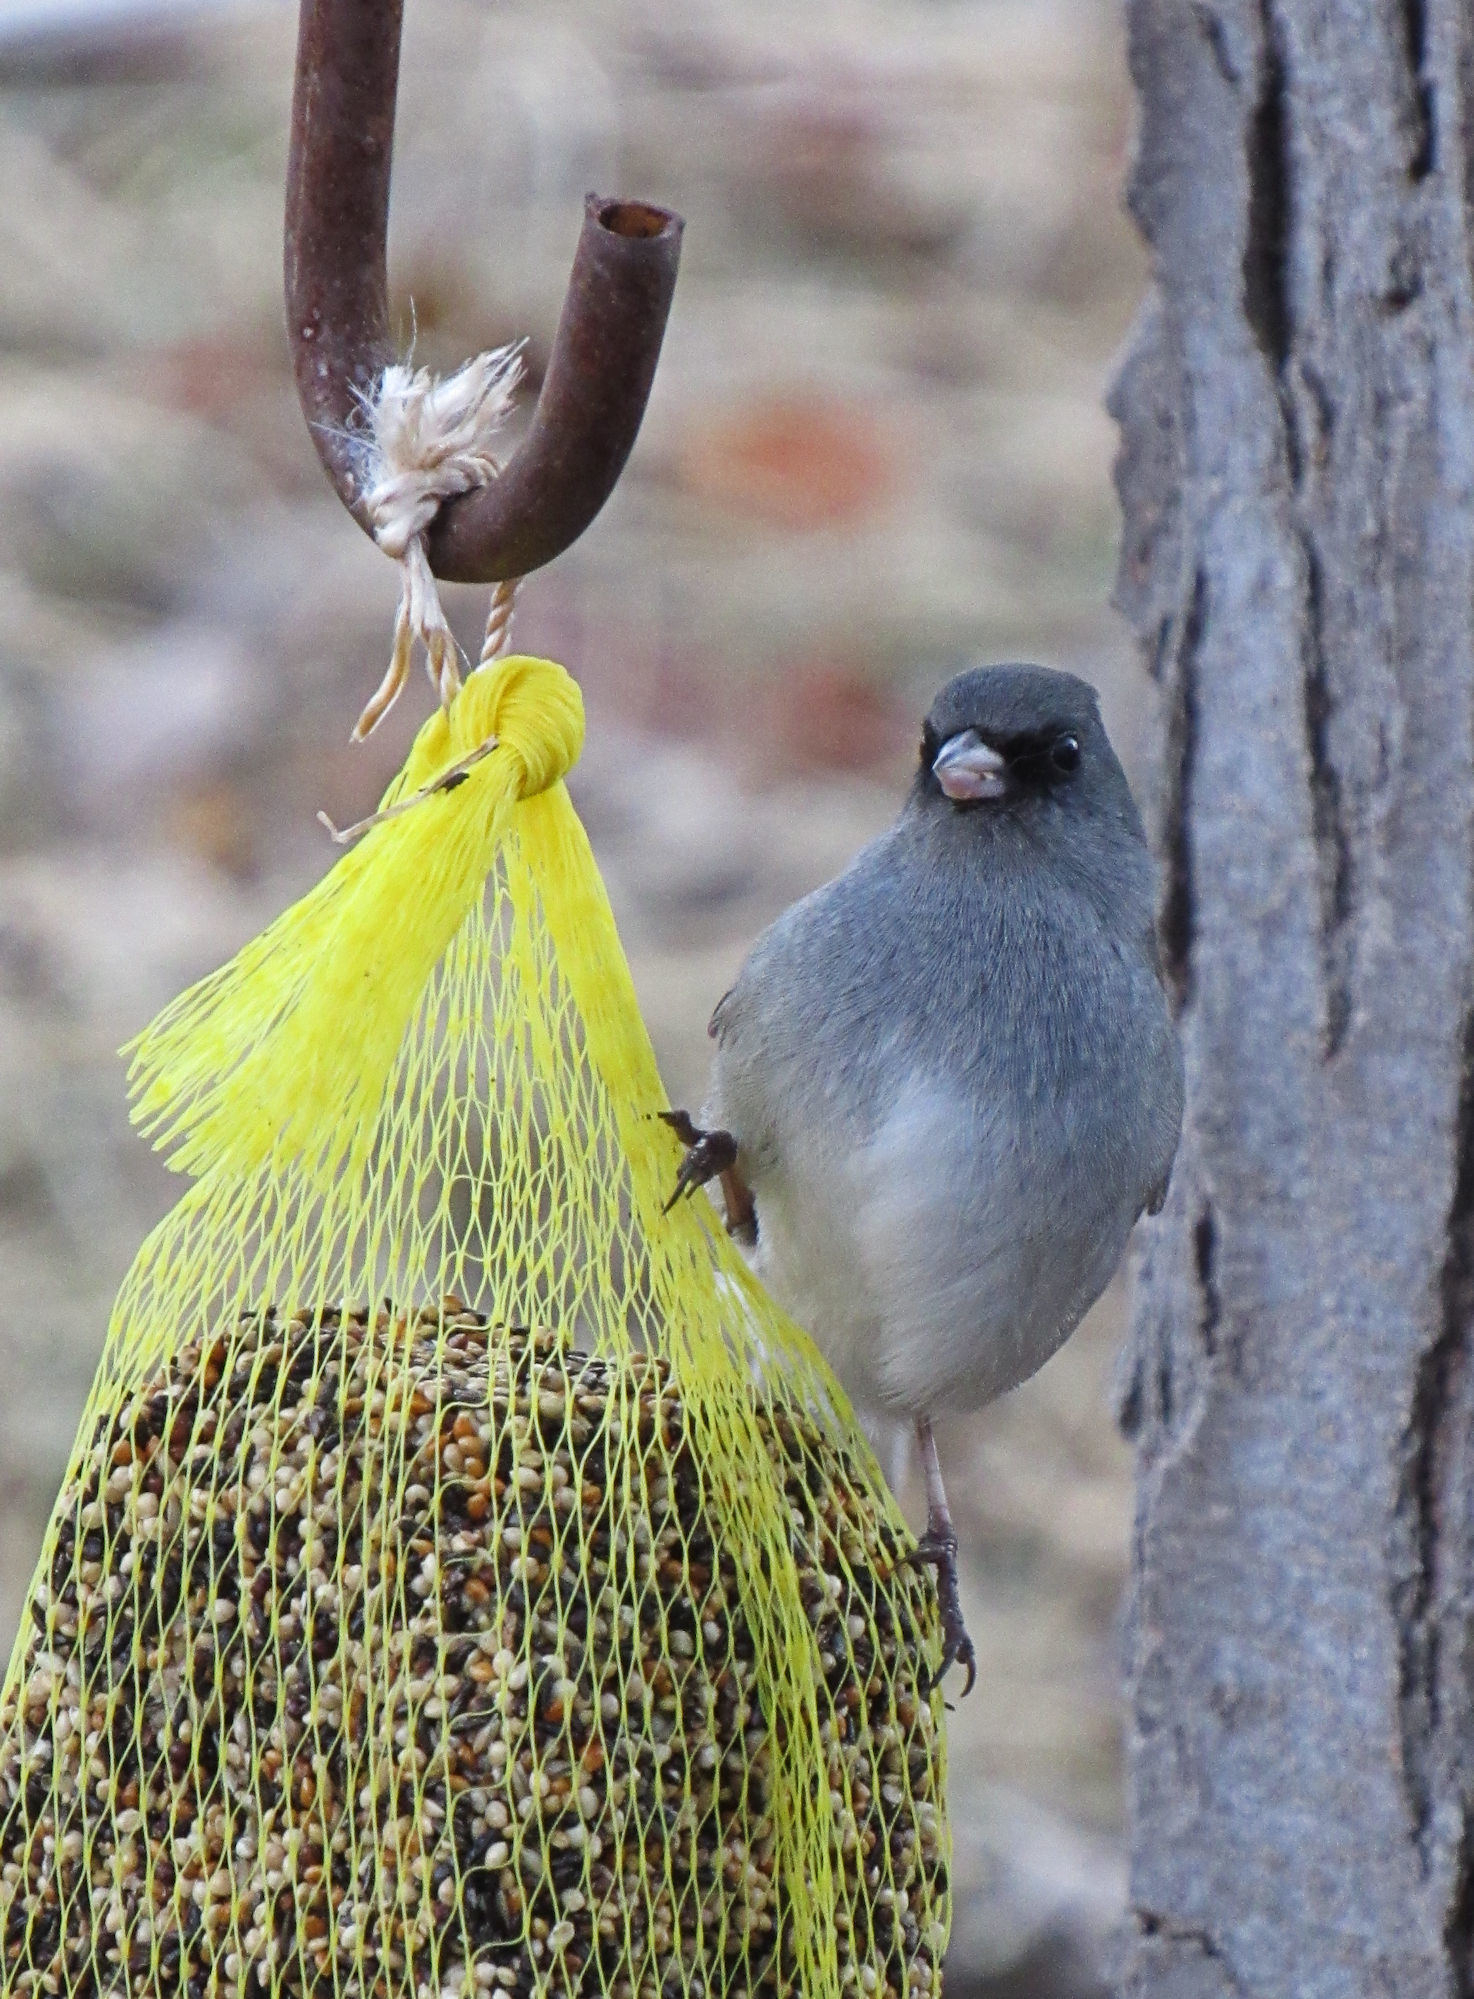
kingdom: Animalia
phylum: Chordata
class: Aves
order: Passeriformes
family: Passerellidae
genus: Junco
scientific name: Junco hyemalis
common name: Dark-eyed junco
